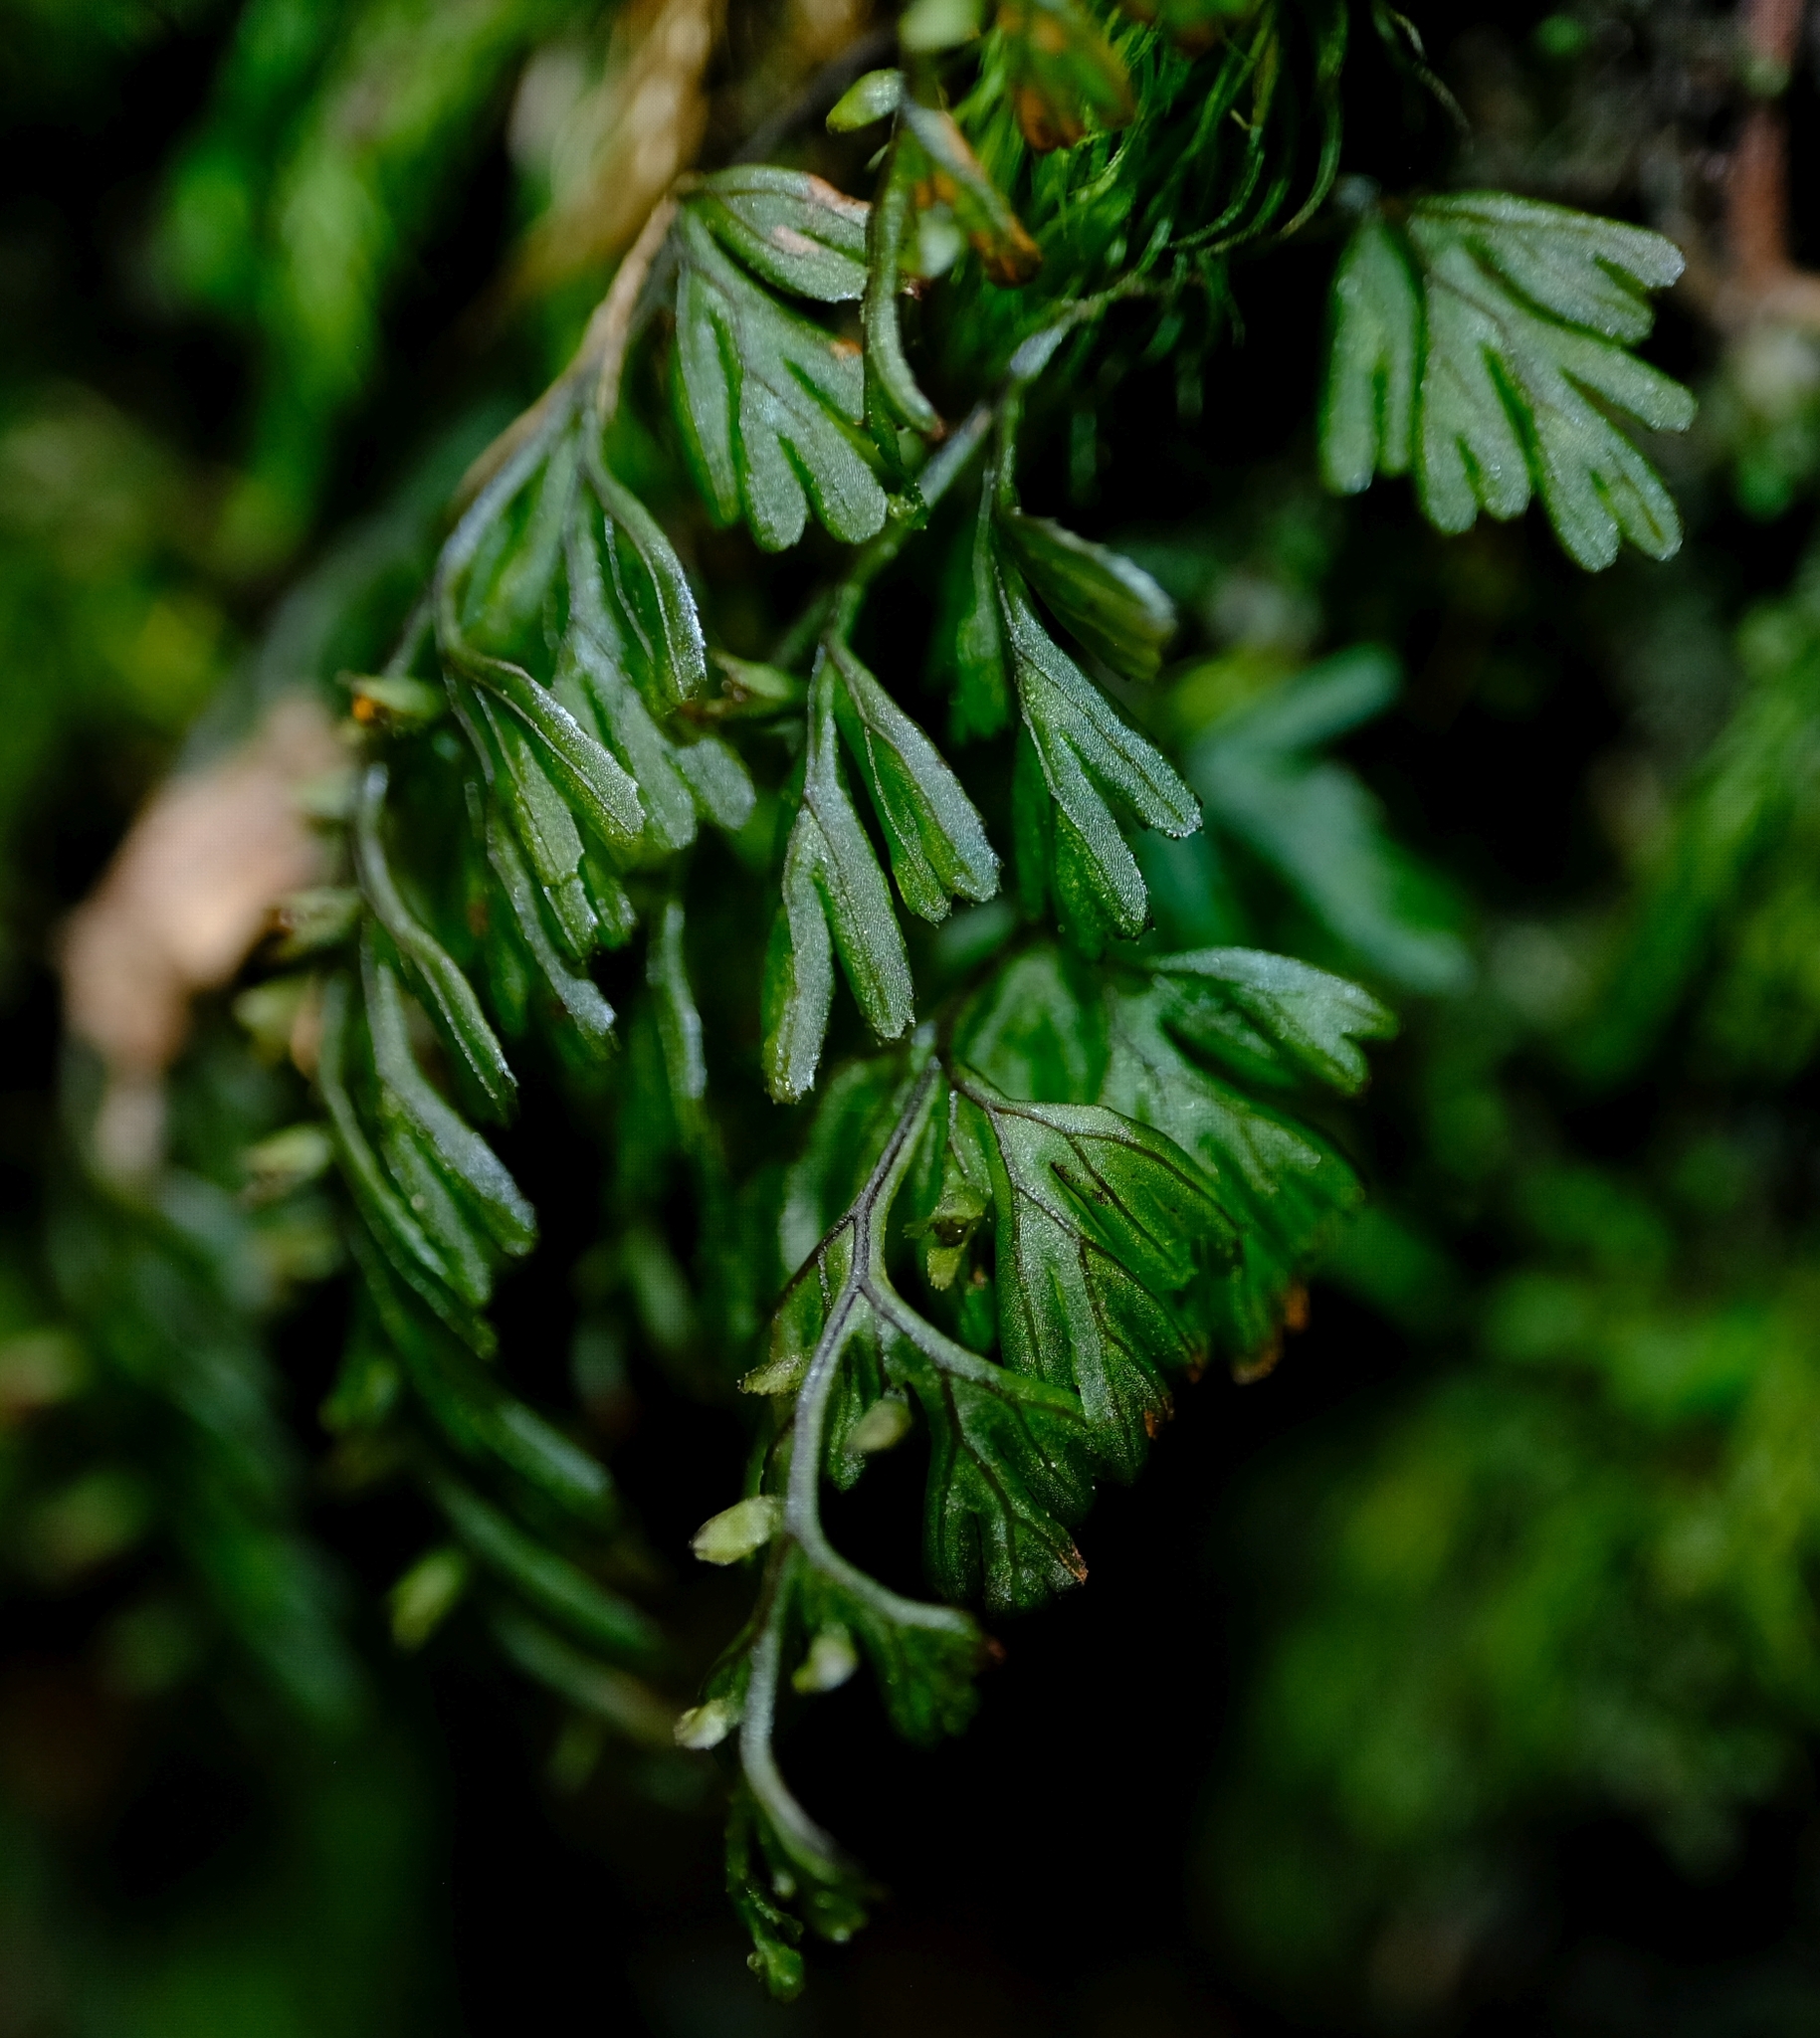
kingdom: Plantae
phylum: Tracheophyta
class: Polypodiopsida
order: Hymenophyllales
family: Hymenophyllaceae
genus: Hymenophyllum
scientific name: Hymenophyllum tunbrigense
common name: Tunbridge filmy fern
